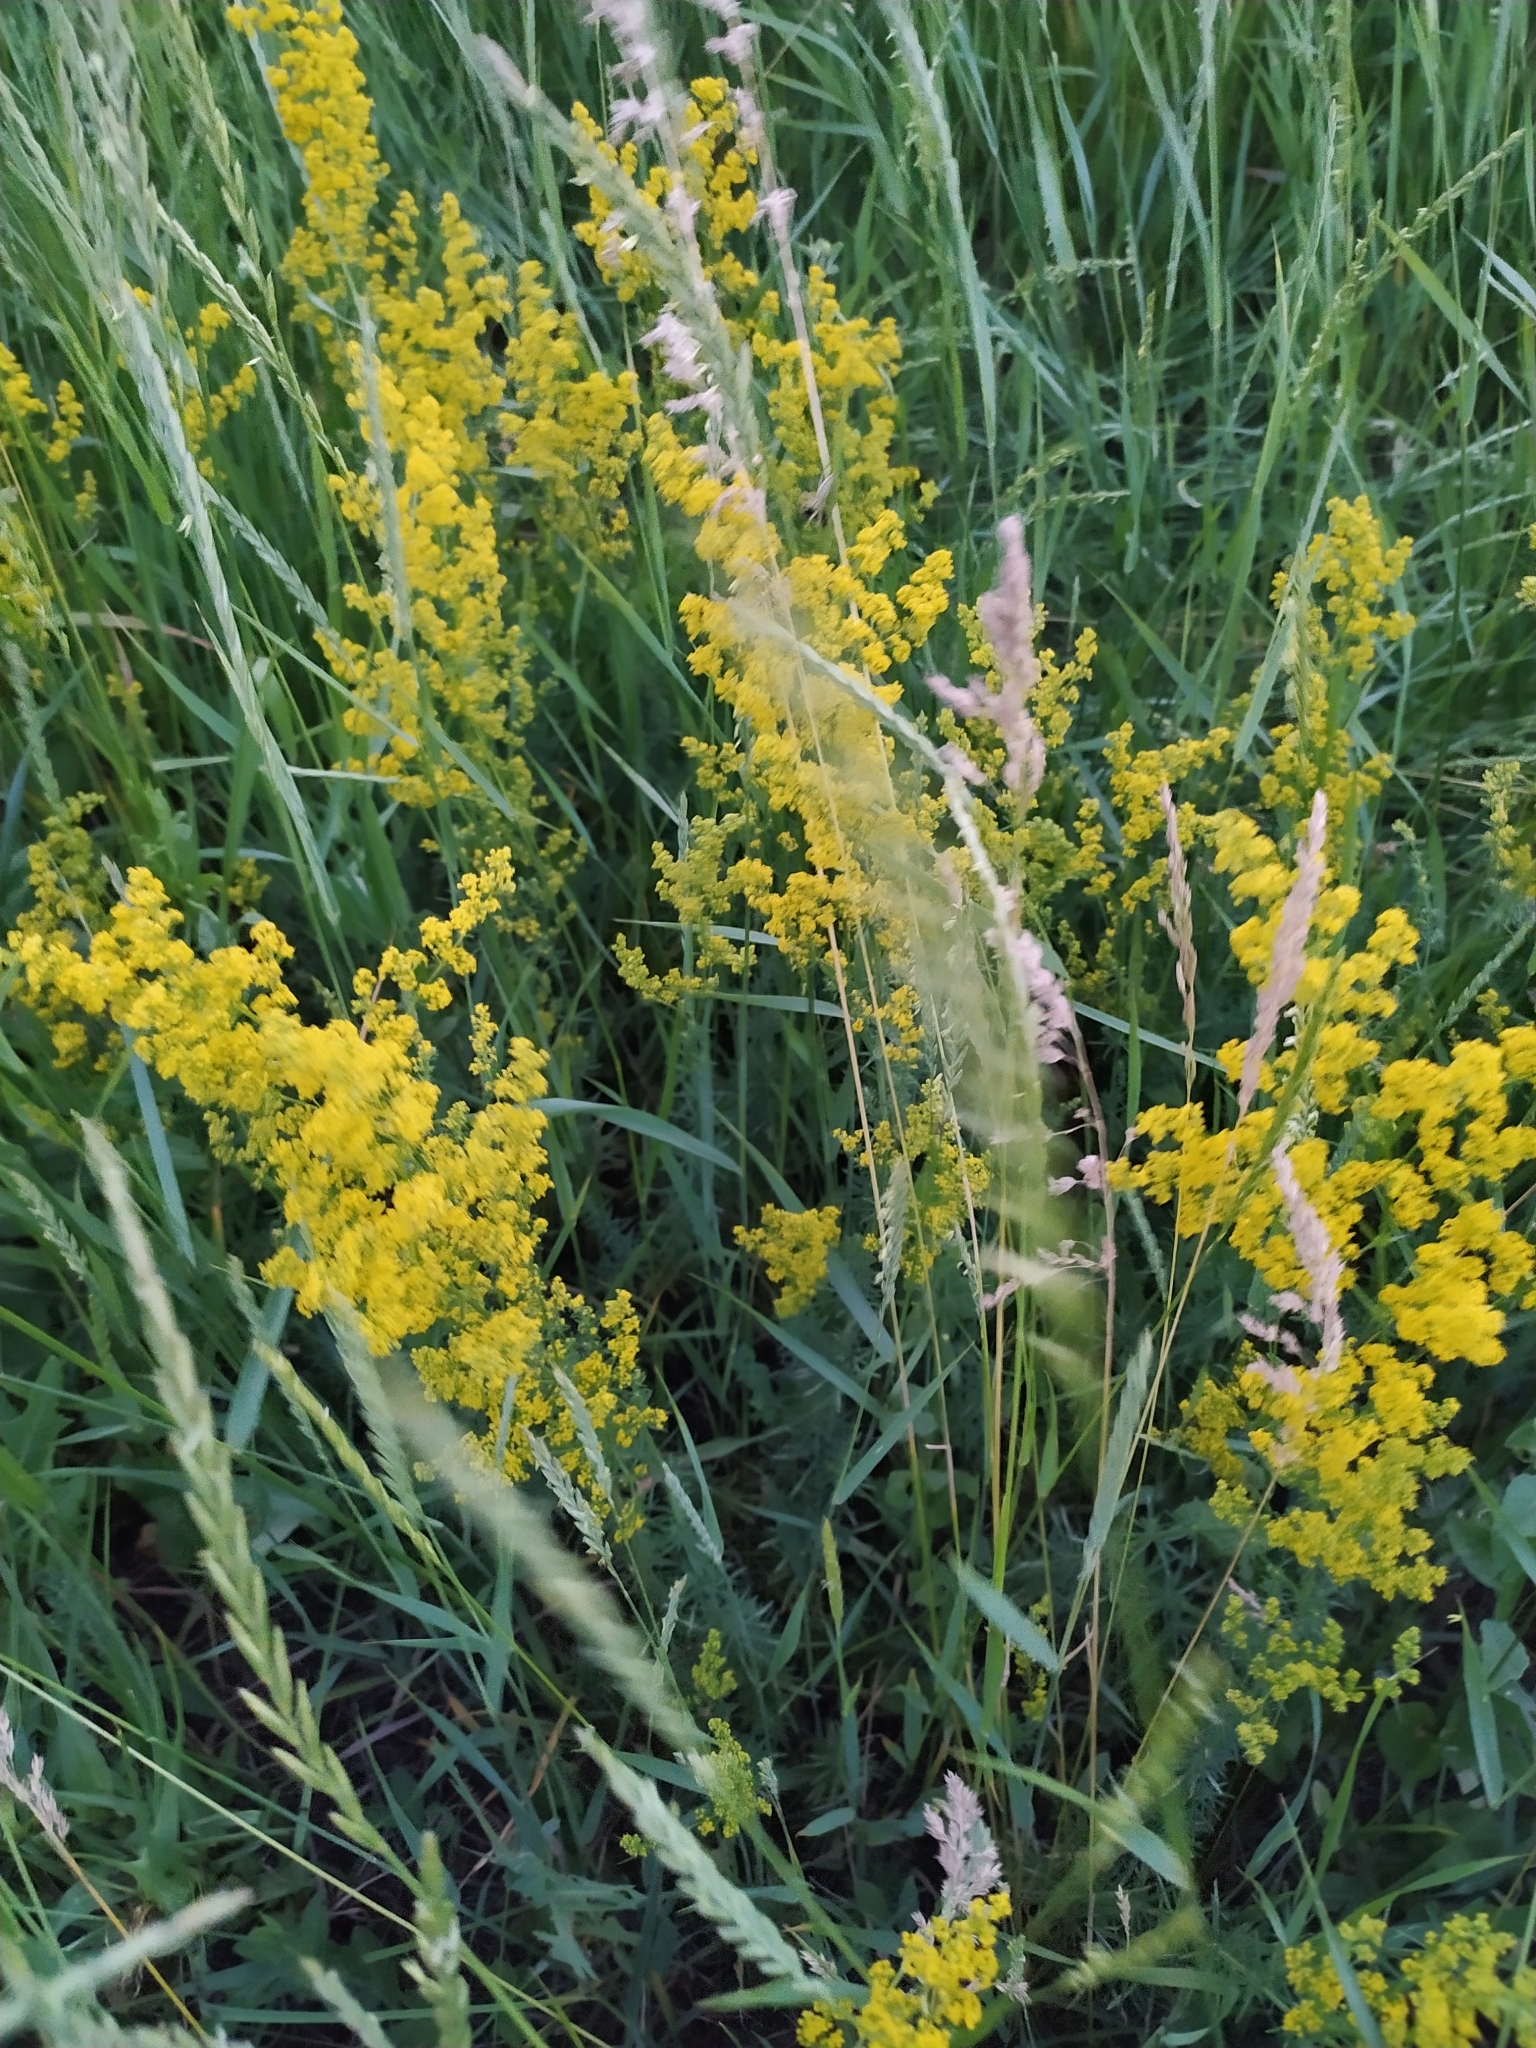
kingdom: Plantae
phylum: Tracheophyta
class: Magnoliopsida
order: Gentianales
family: Rubiaceae
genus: Galium
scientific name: Galium verum
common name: Lady's bedstraw
